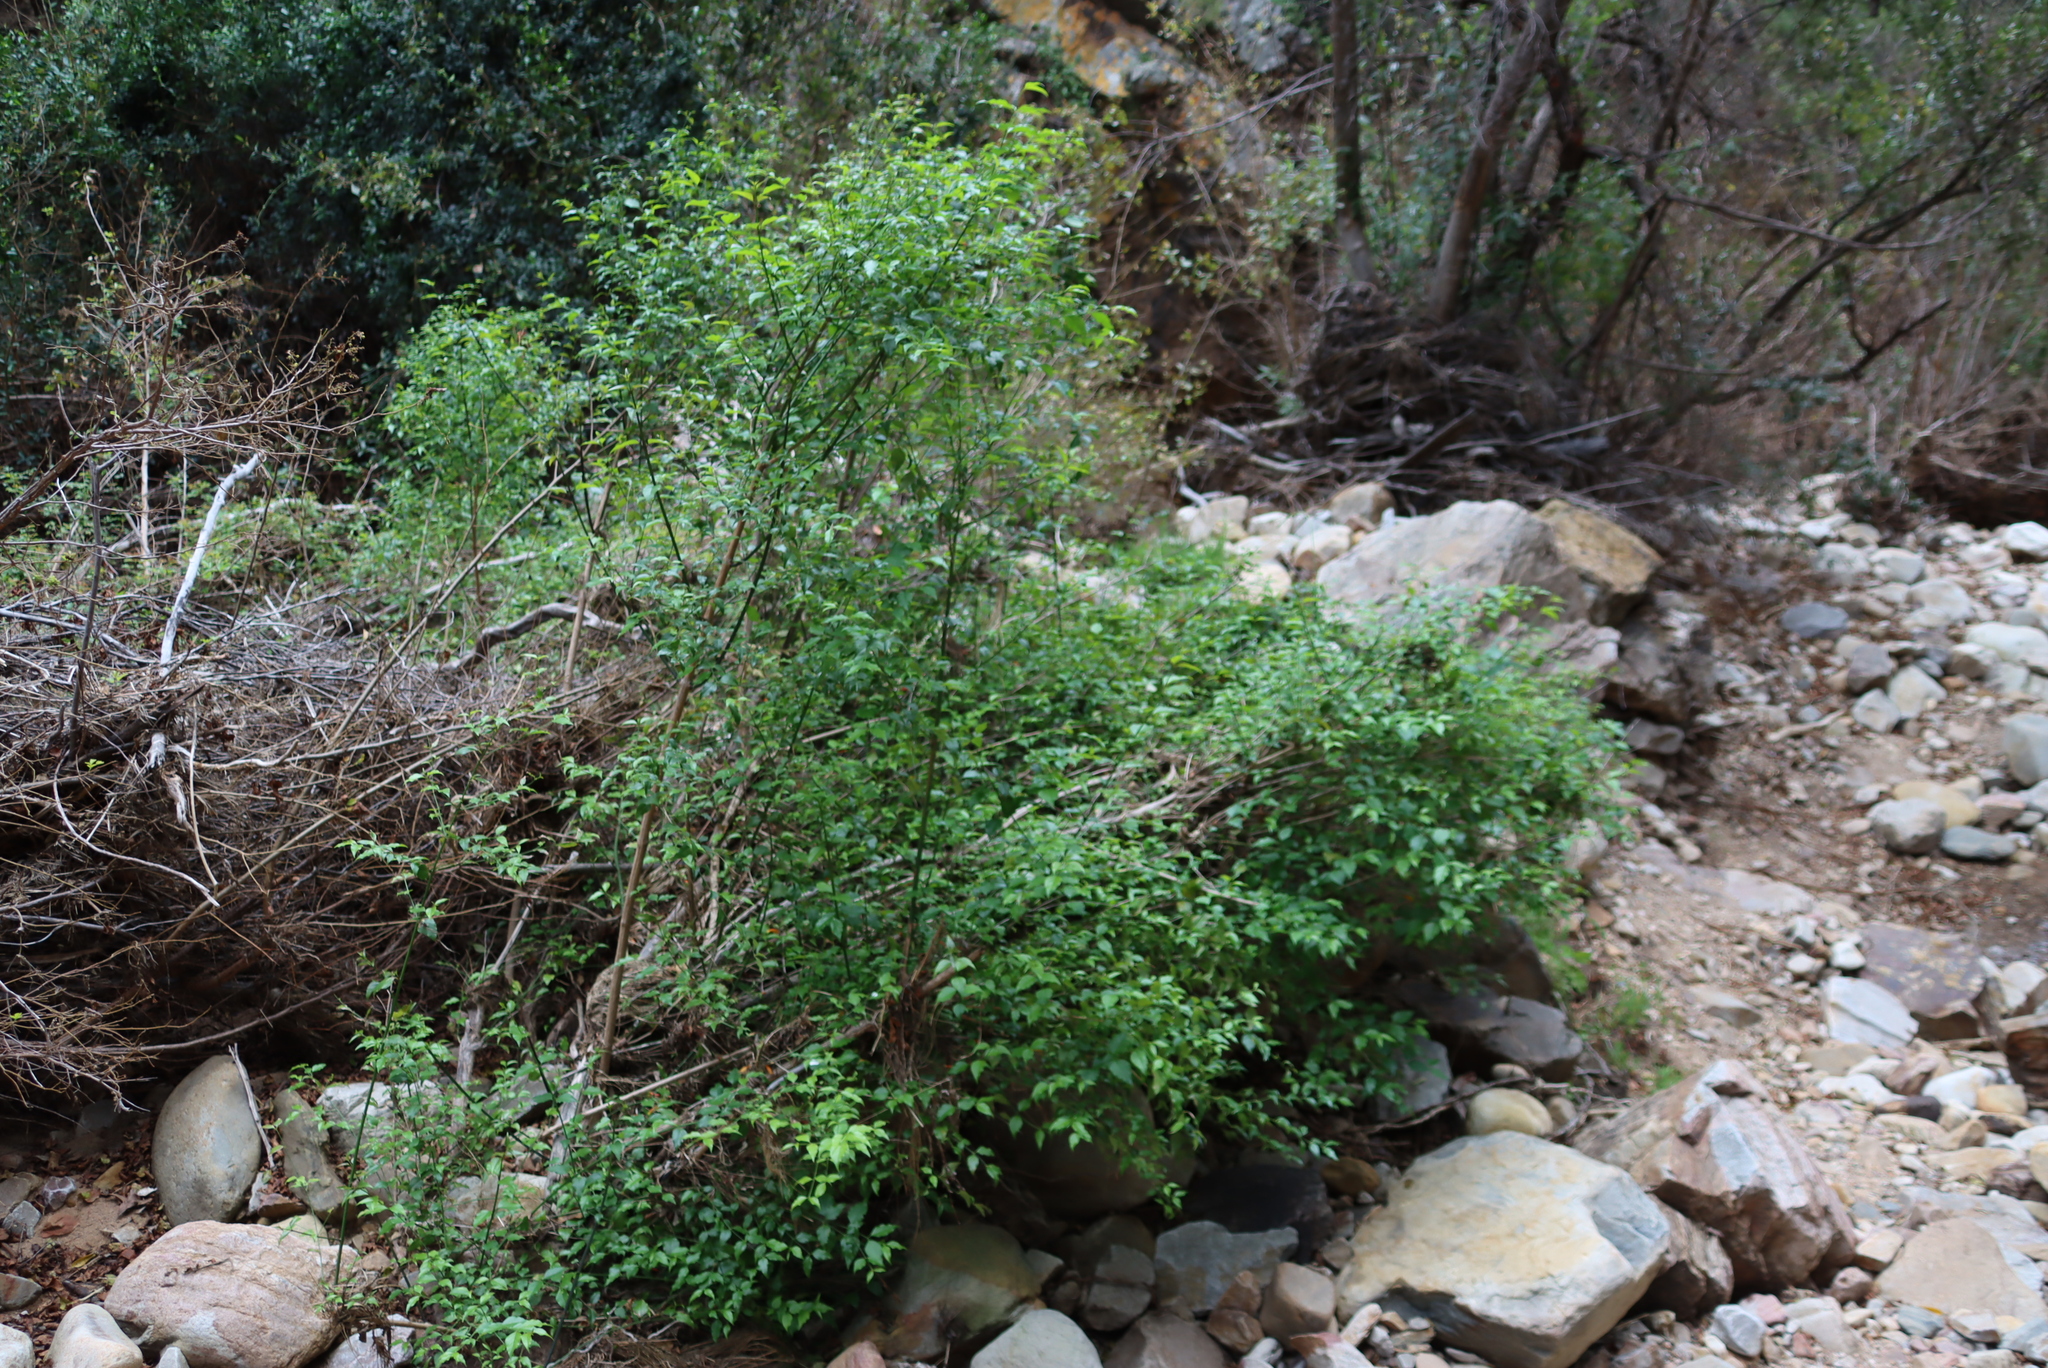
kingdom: Plantae
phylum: Tracheophyta
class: Magnoliopsida
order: Lamiales
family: Stilbaceae
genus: Halleria
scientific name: Halleria lucida
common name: Tree fuschia
